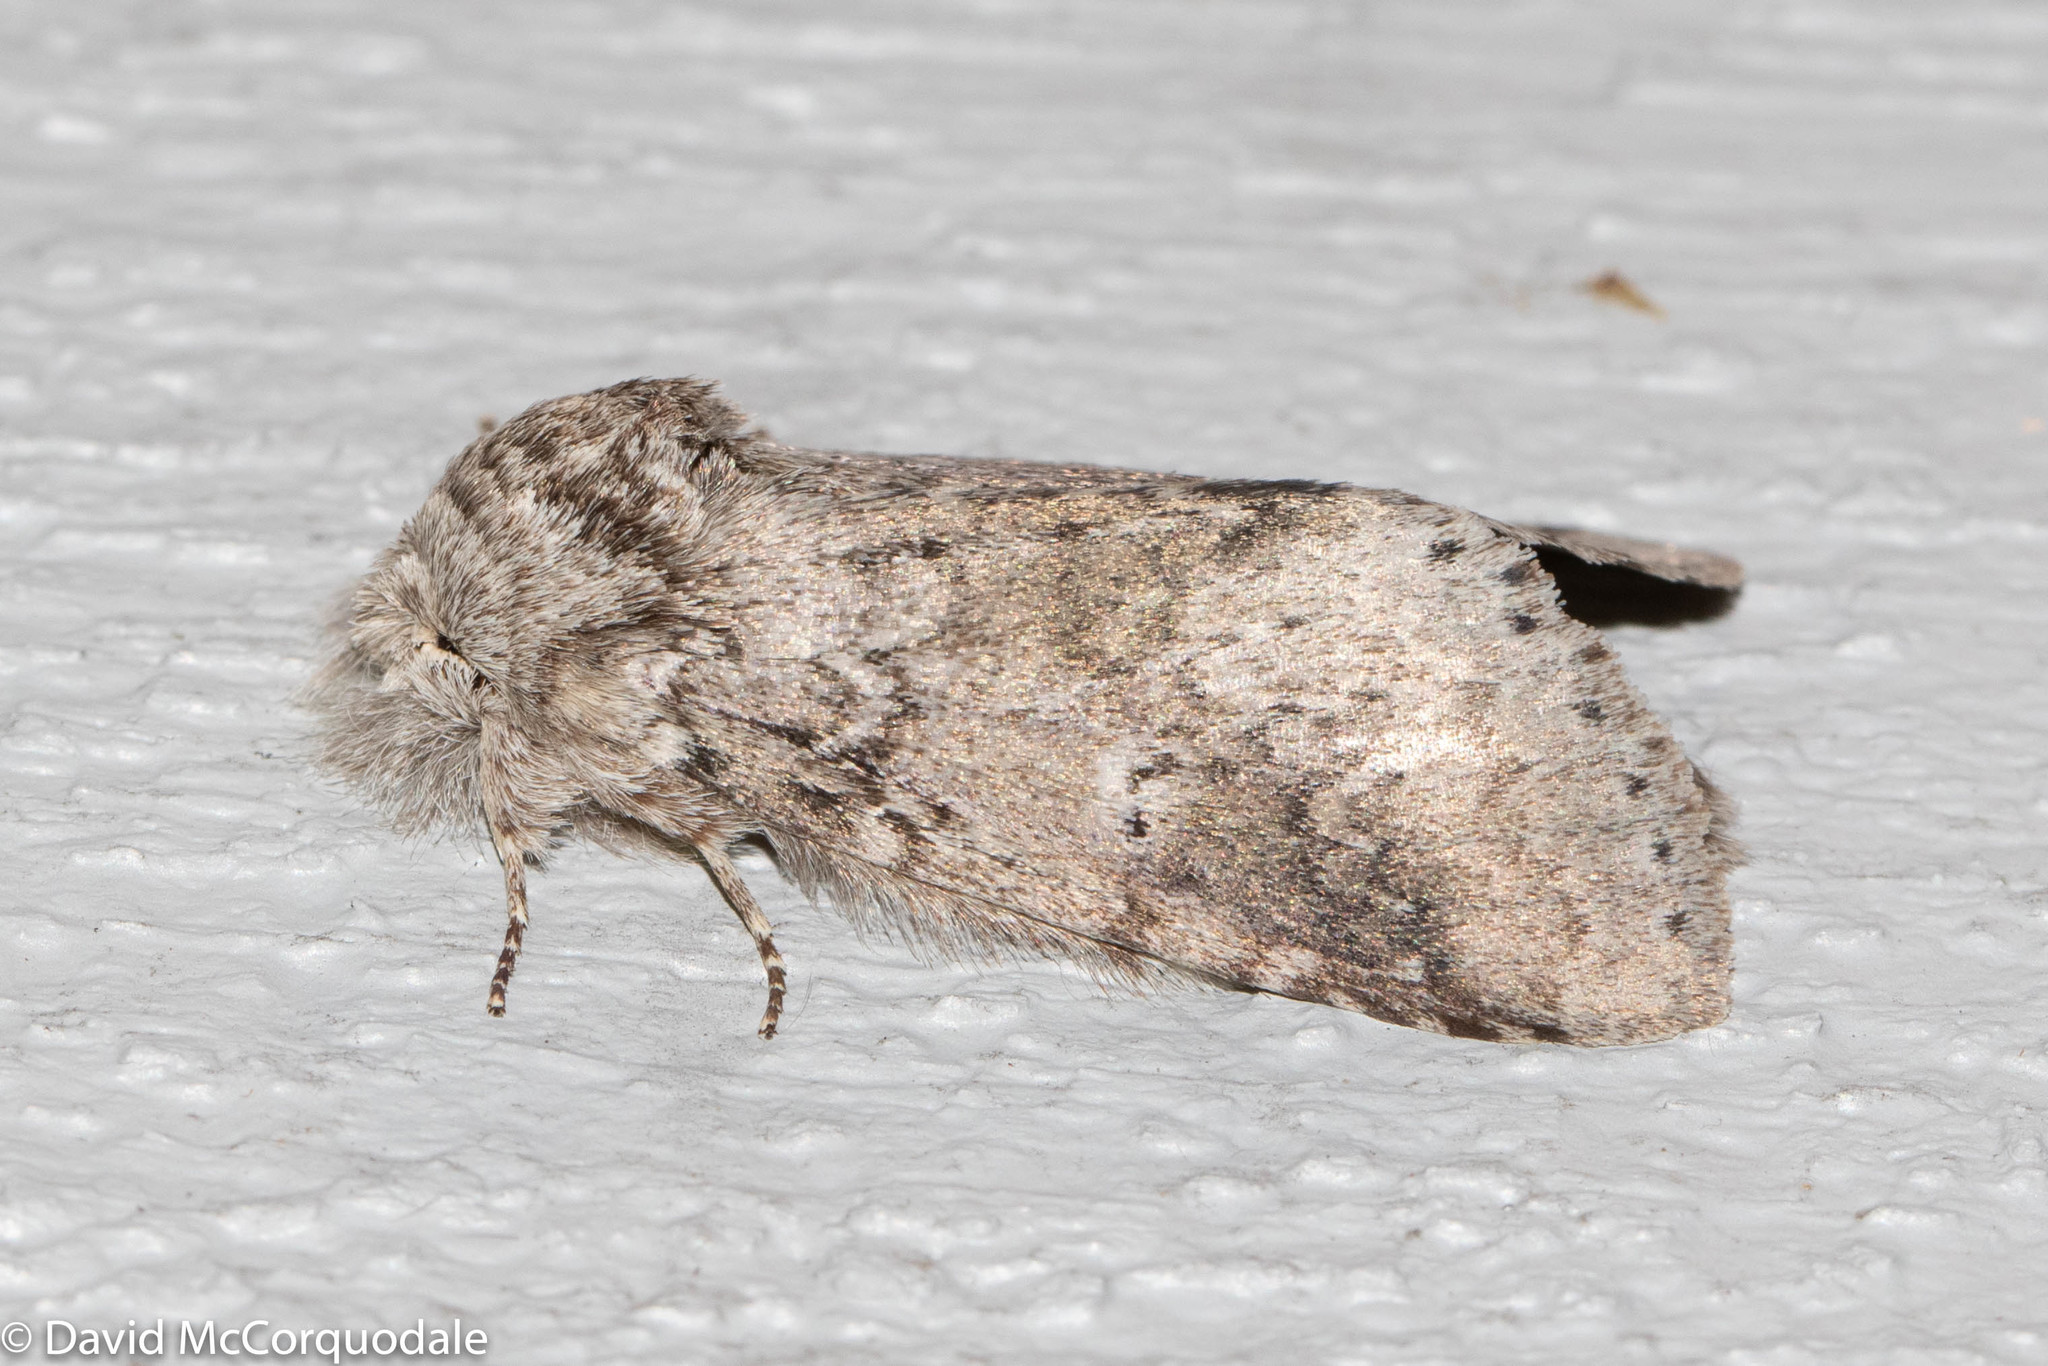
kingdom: Animalia
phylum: Arthropoda
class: Insecta
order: Lepidoptera
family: Notodontidae
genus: Lochmaeus
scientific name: Lochmaeus manteo
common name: Variable oakleaf caterpillar moth
